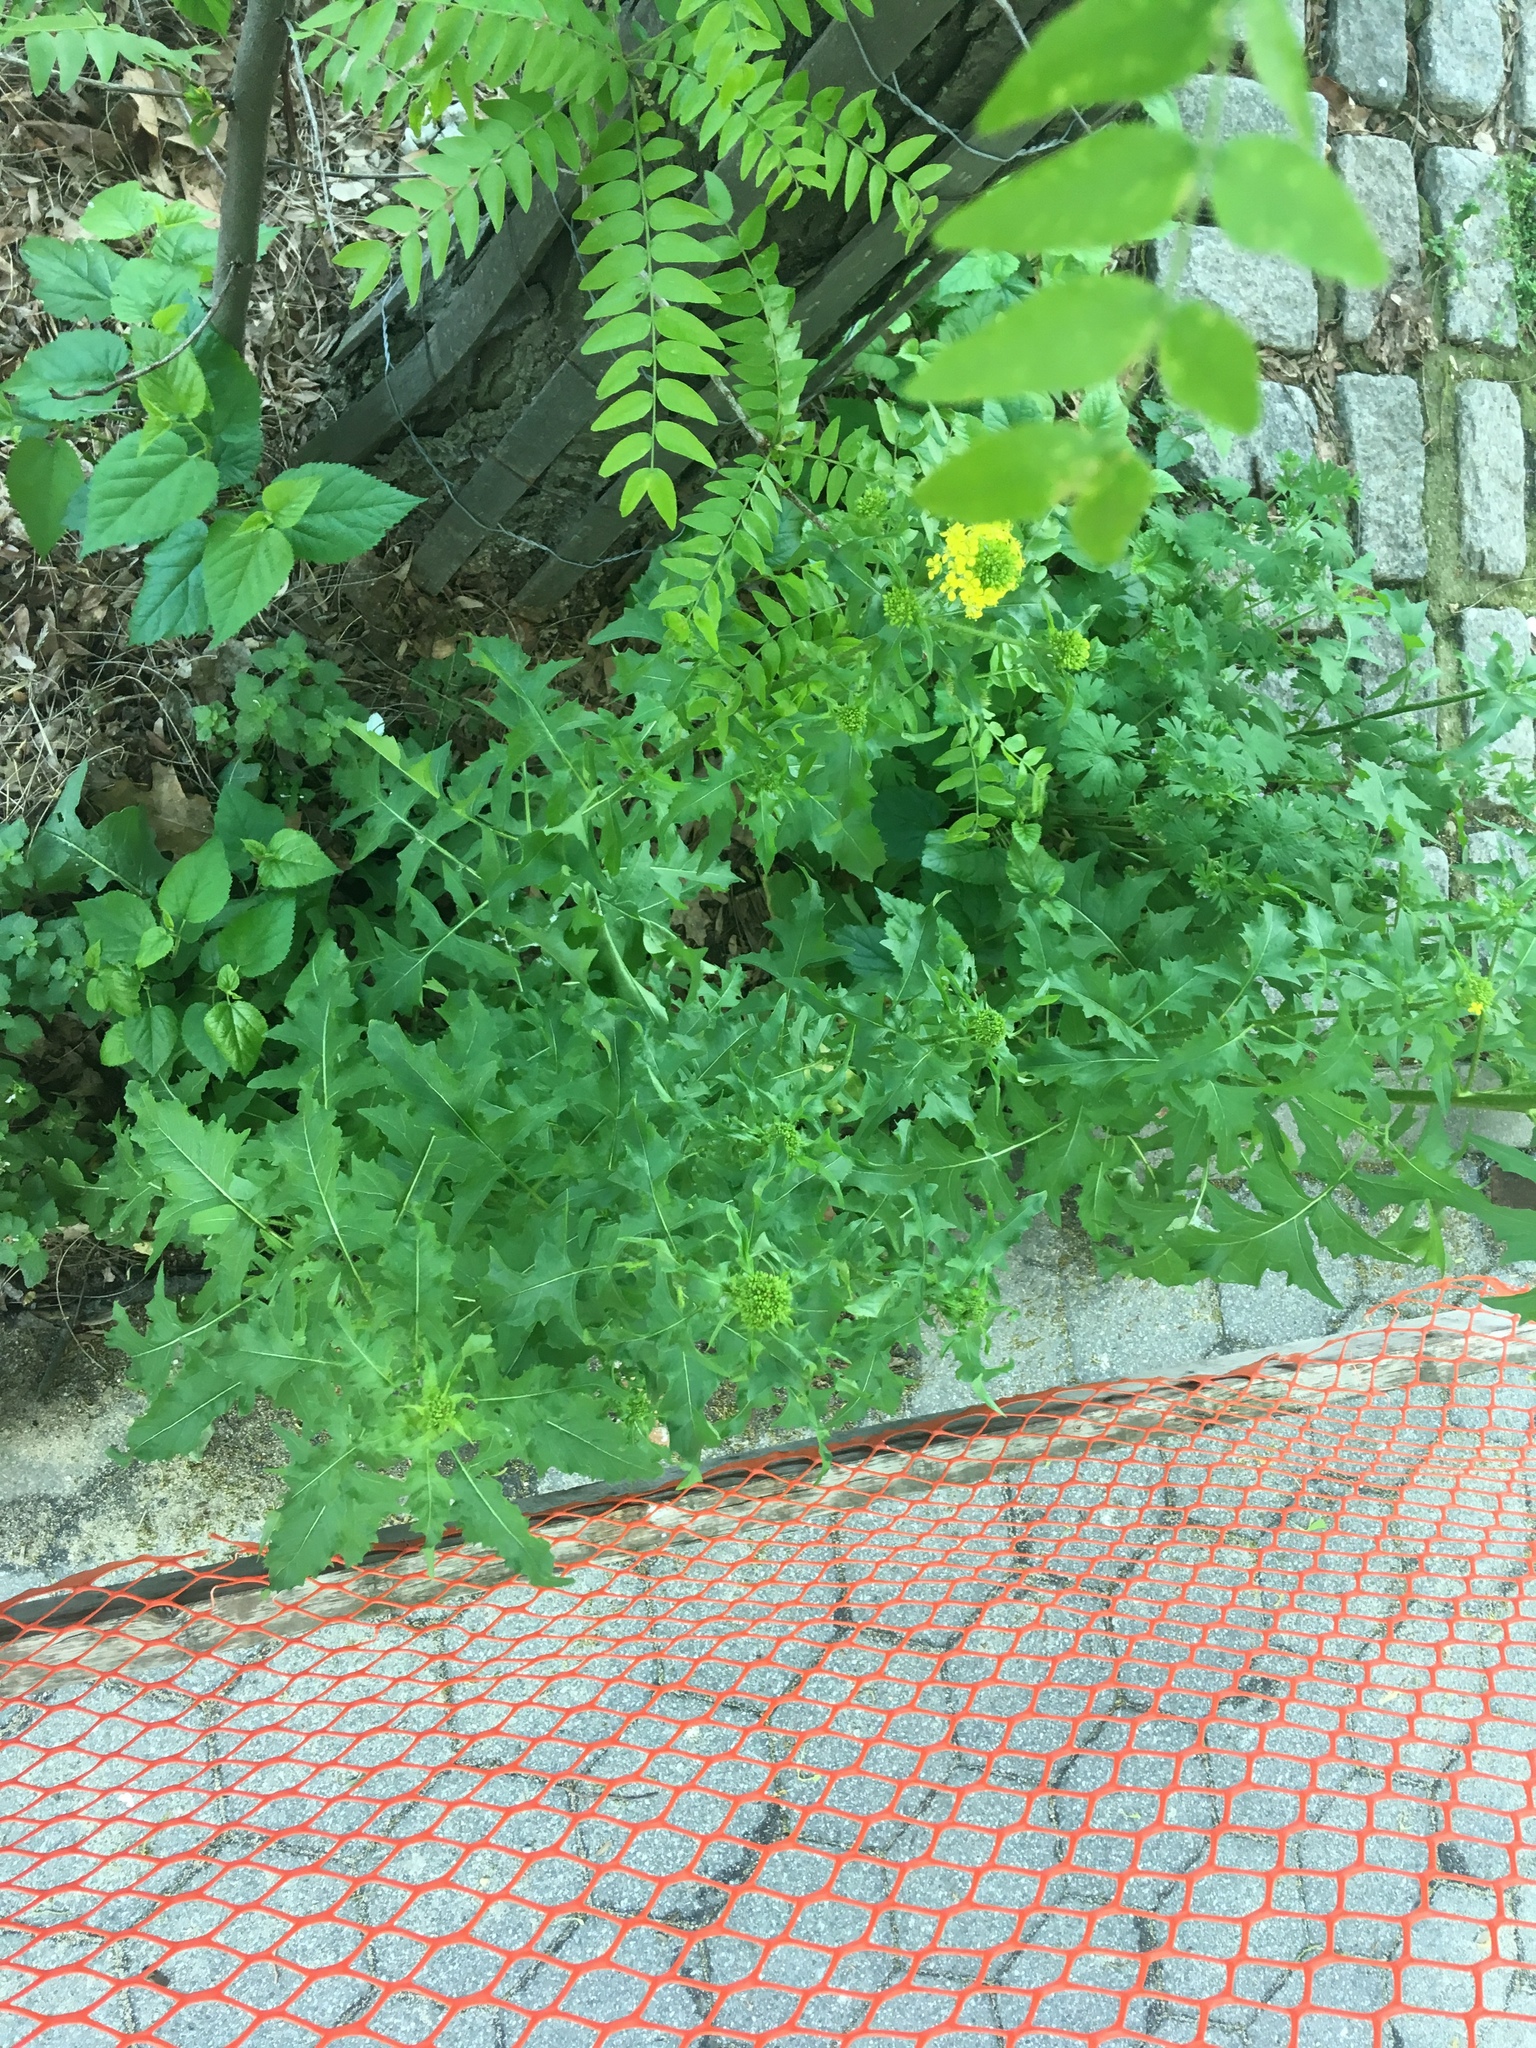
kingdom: Plantae
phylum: Tracheophyta
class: Magnoliopsida
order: Brassicales
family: Brassicaceae
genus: Sisymbrium
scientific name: Sisymbrium loeselii
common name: False london-rocket
